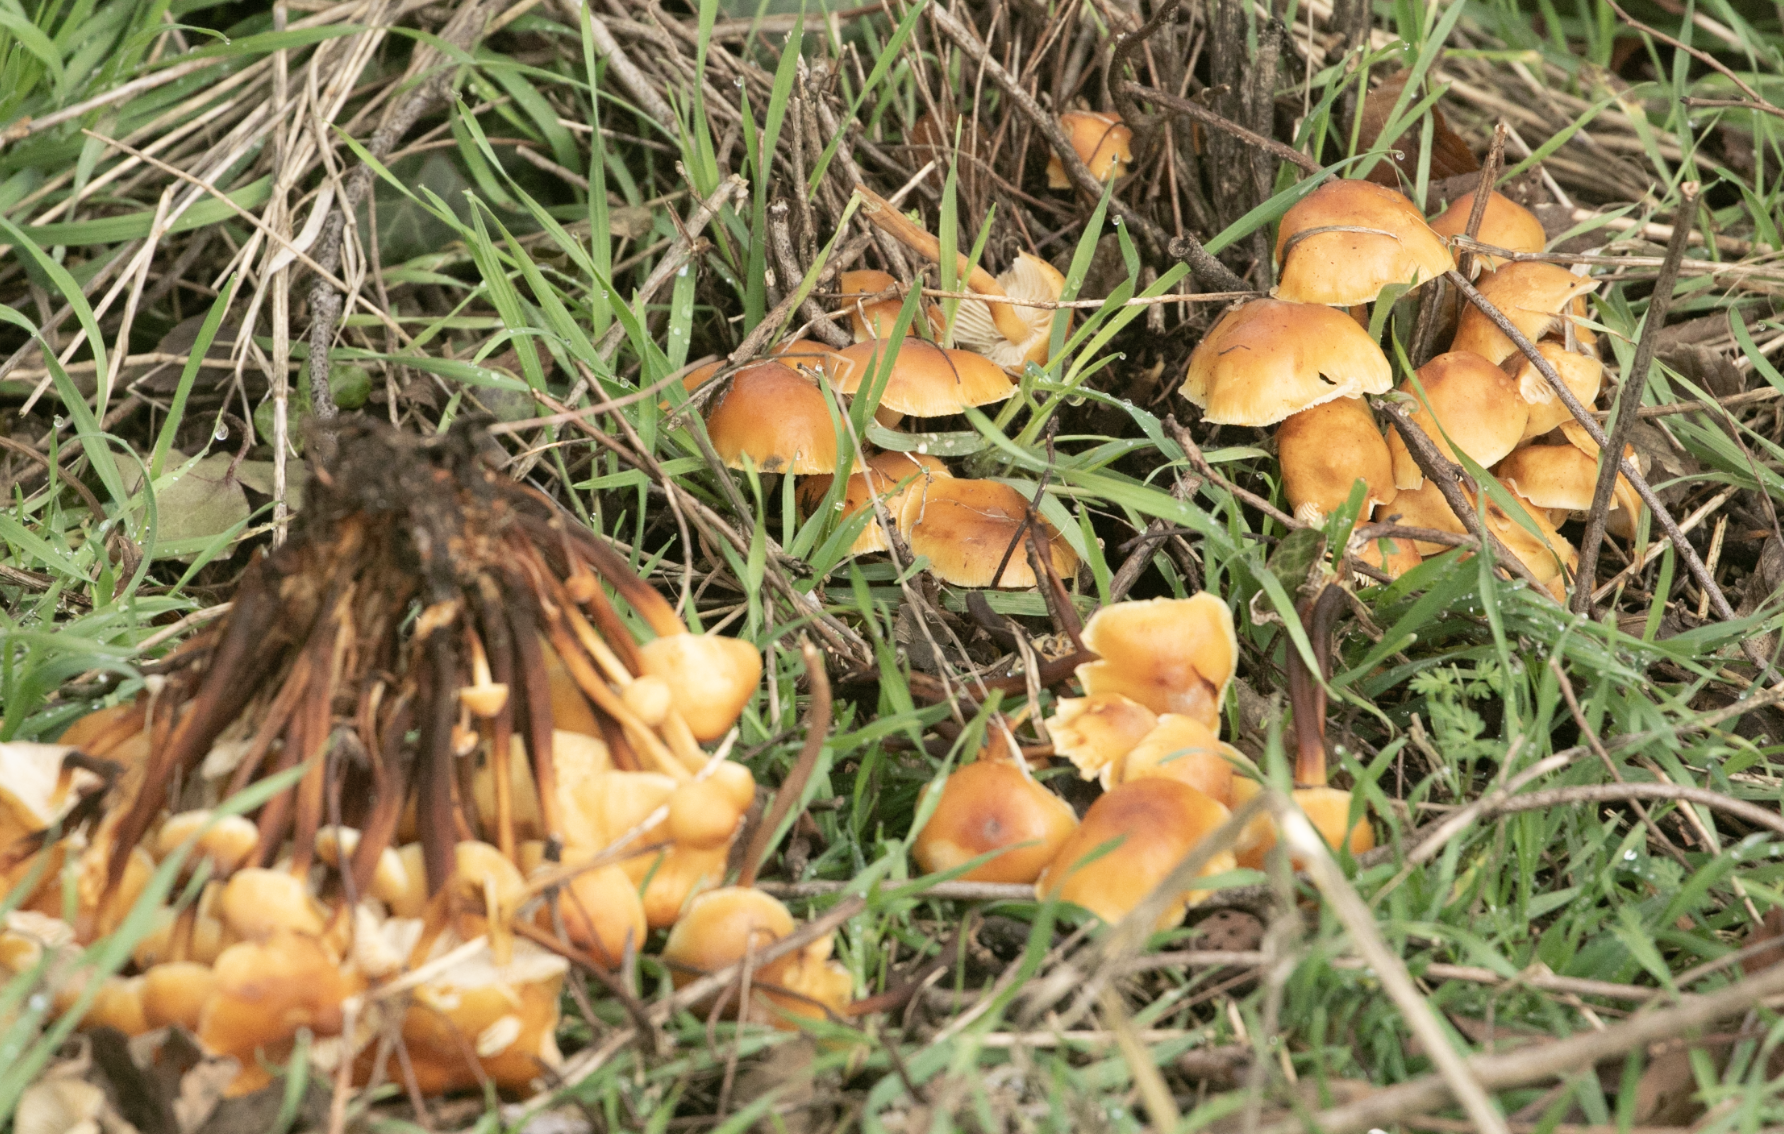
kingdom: Fungi
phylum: Basidiomycota
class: Agaricomycetes
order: Agaricales
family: Physalacriaceae
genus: Flammulina
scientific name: Flammulina
